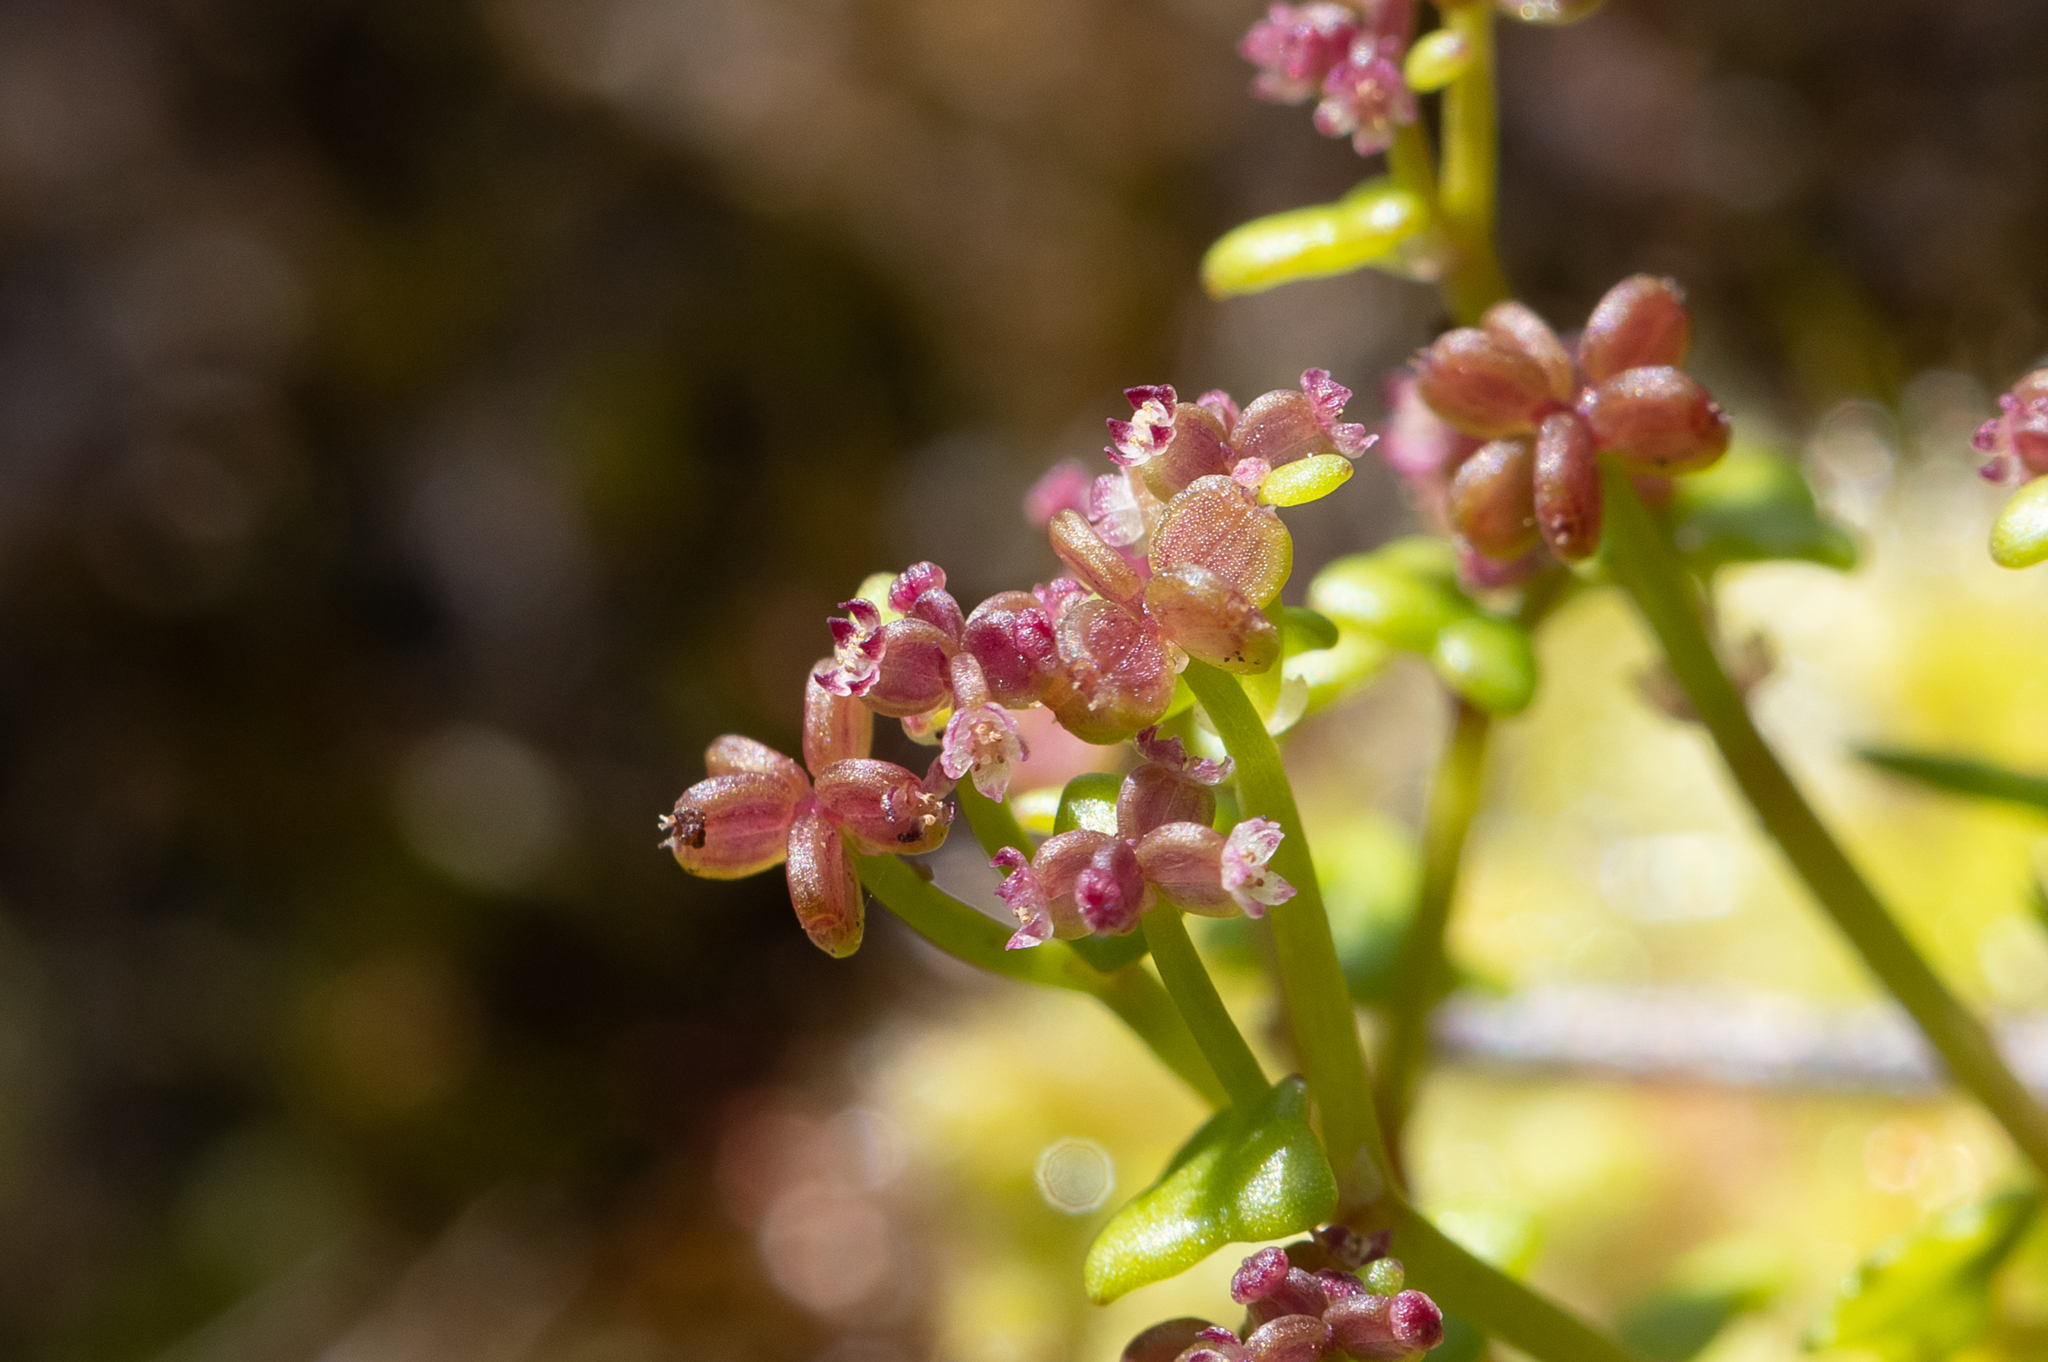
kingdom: Plantae
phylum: Tracheophyta
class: Magnoliopsida
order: Apiales
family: Araliaceae
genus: Hydrocotyle
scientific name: Hydrocotyle alata
